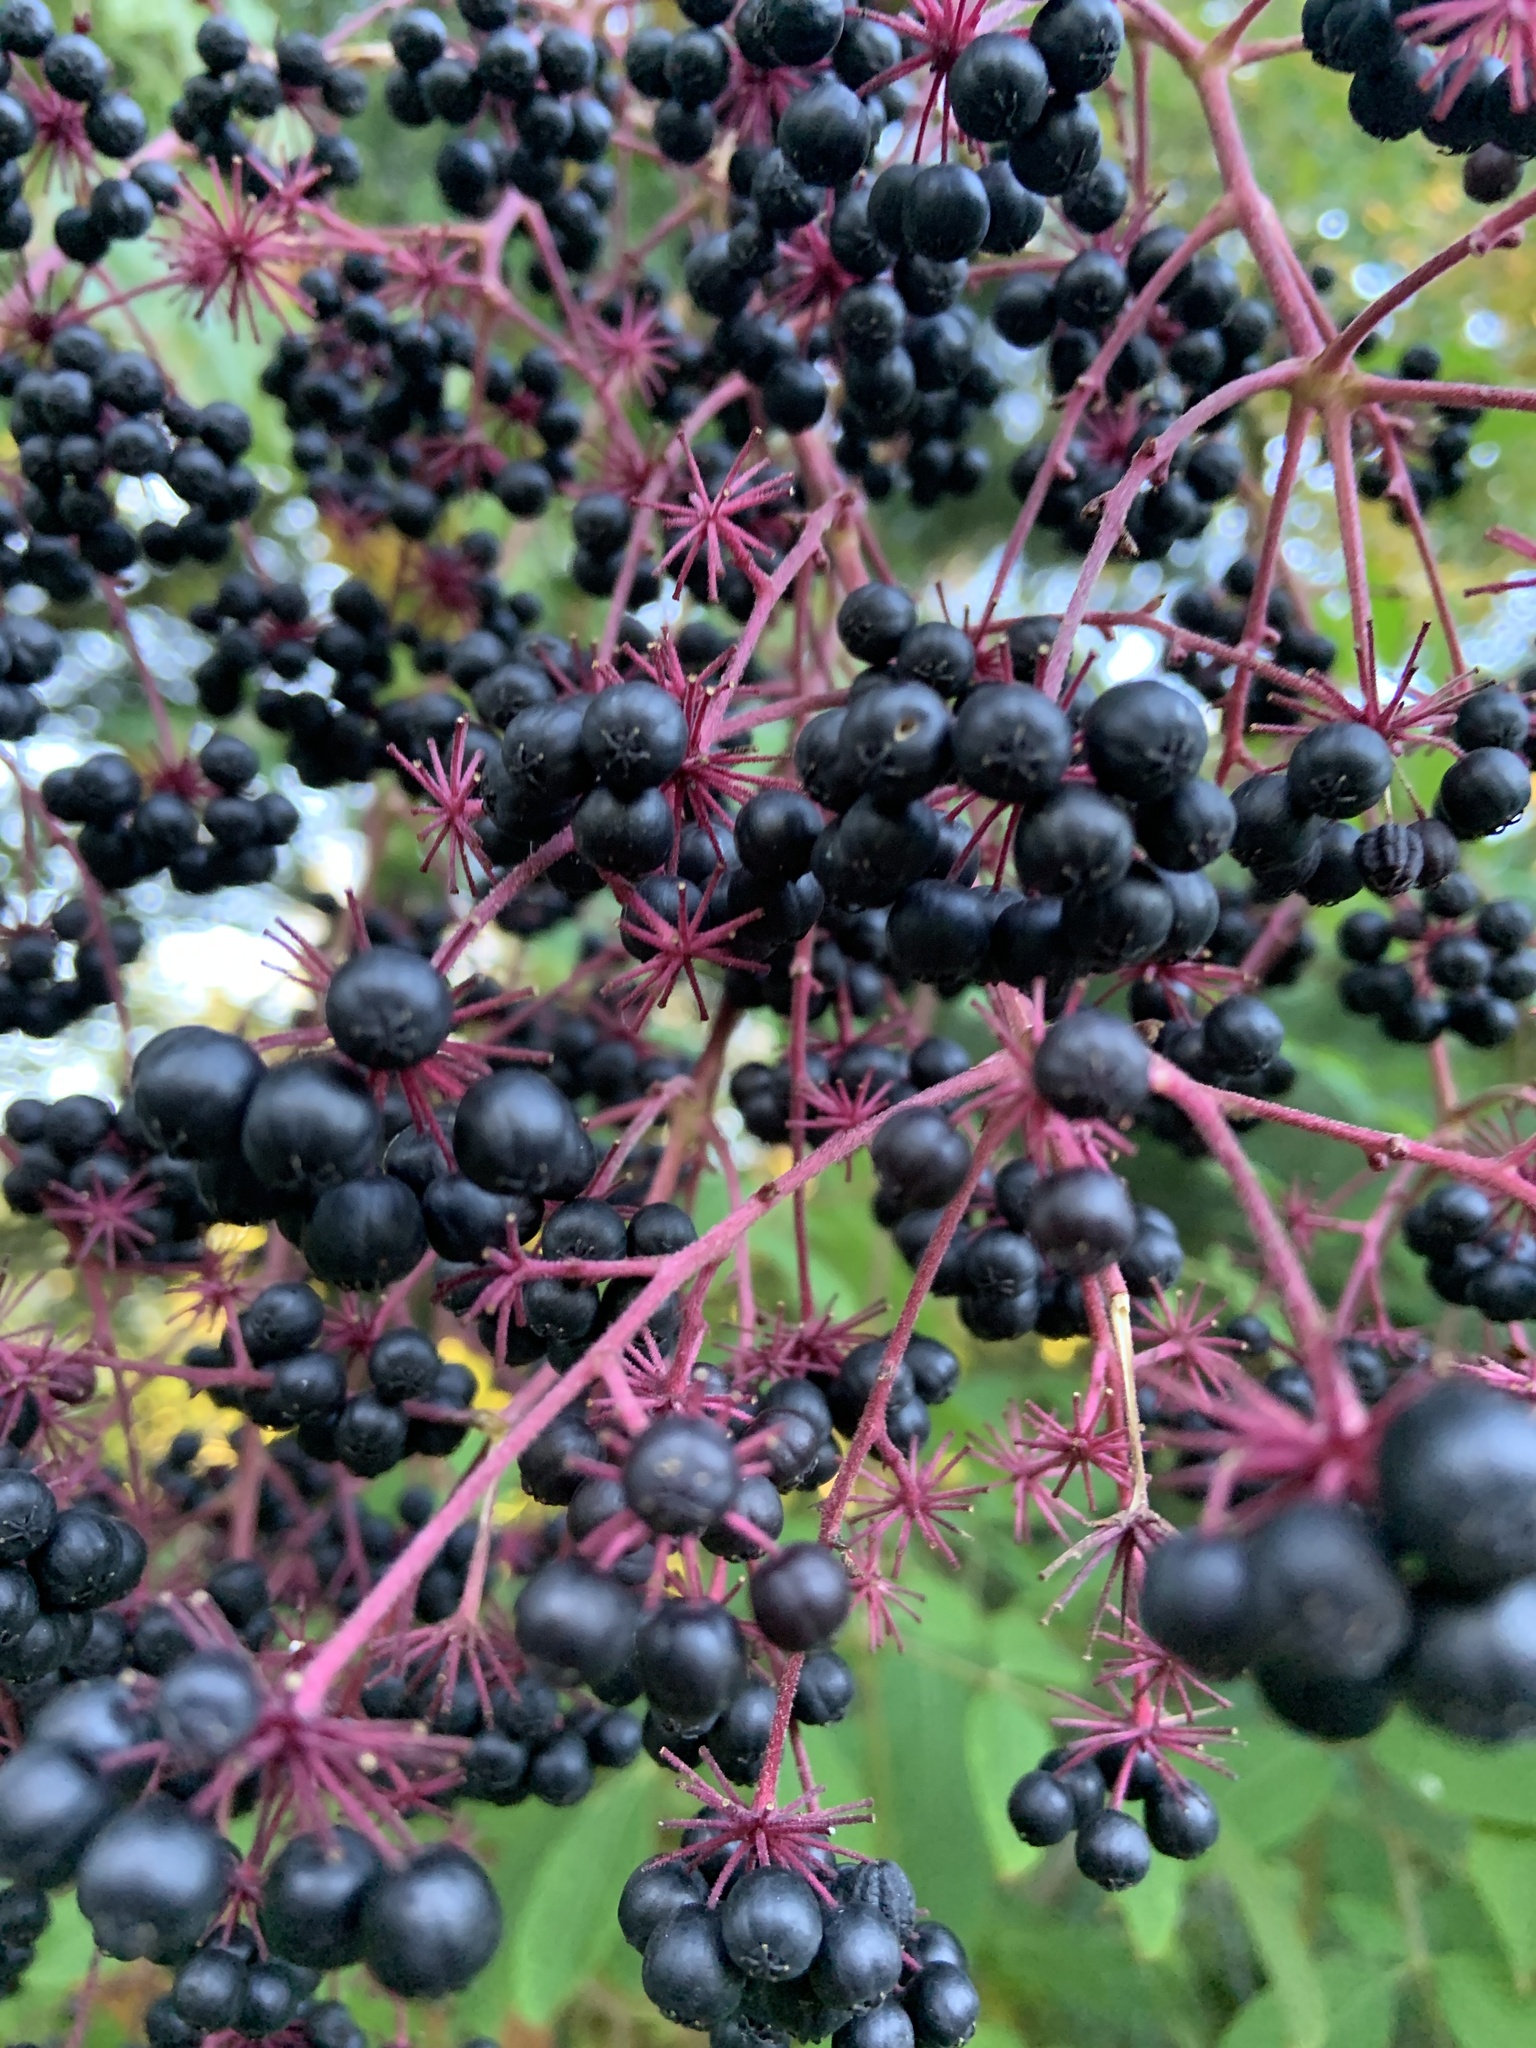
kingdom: Plantae
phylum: Tracheophyta
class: Magnoliopsida
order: Apiales
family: Araliaceae
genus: Aralia
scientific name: Aralia spinosa
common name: Hercules'-club
